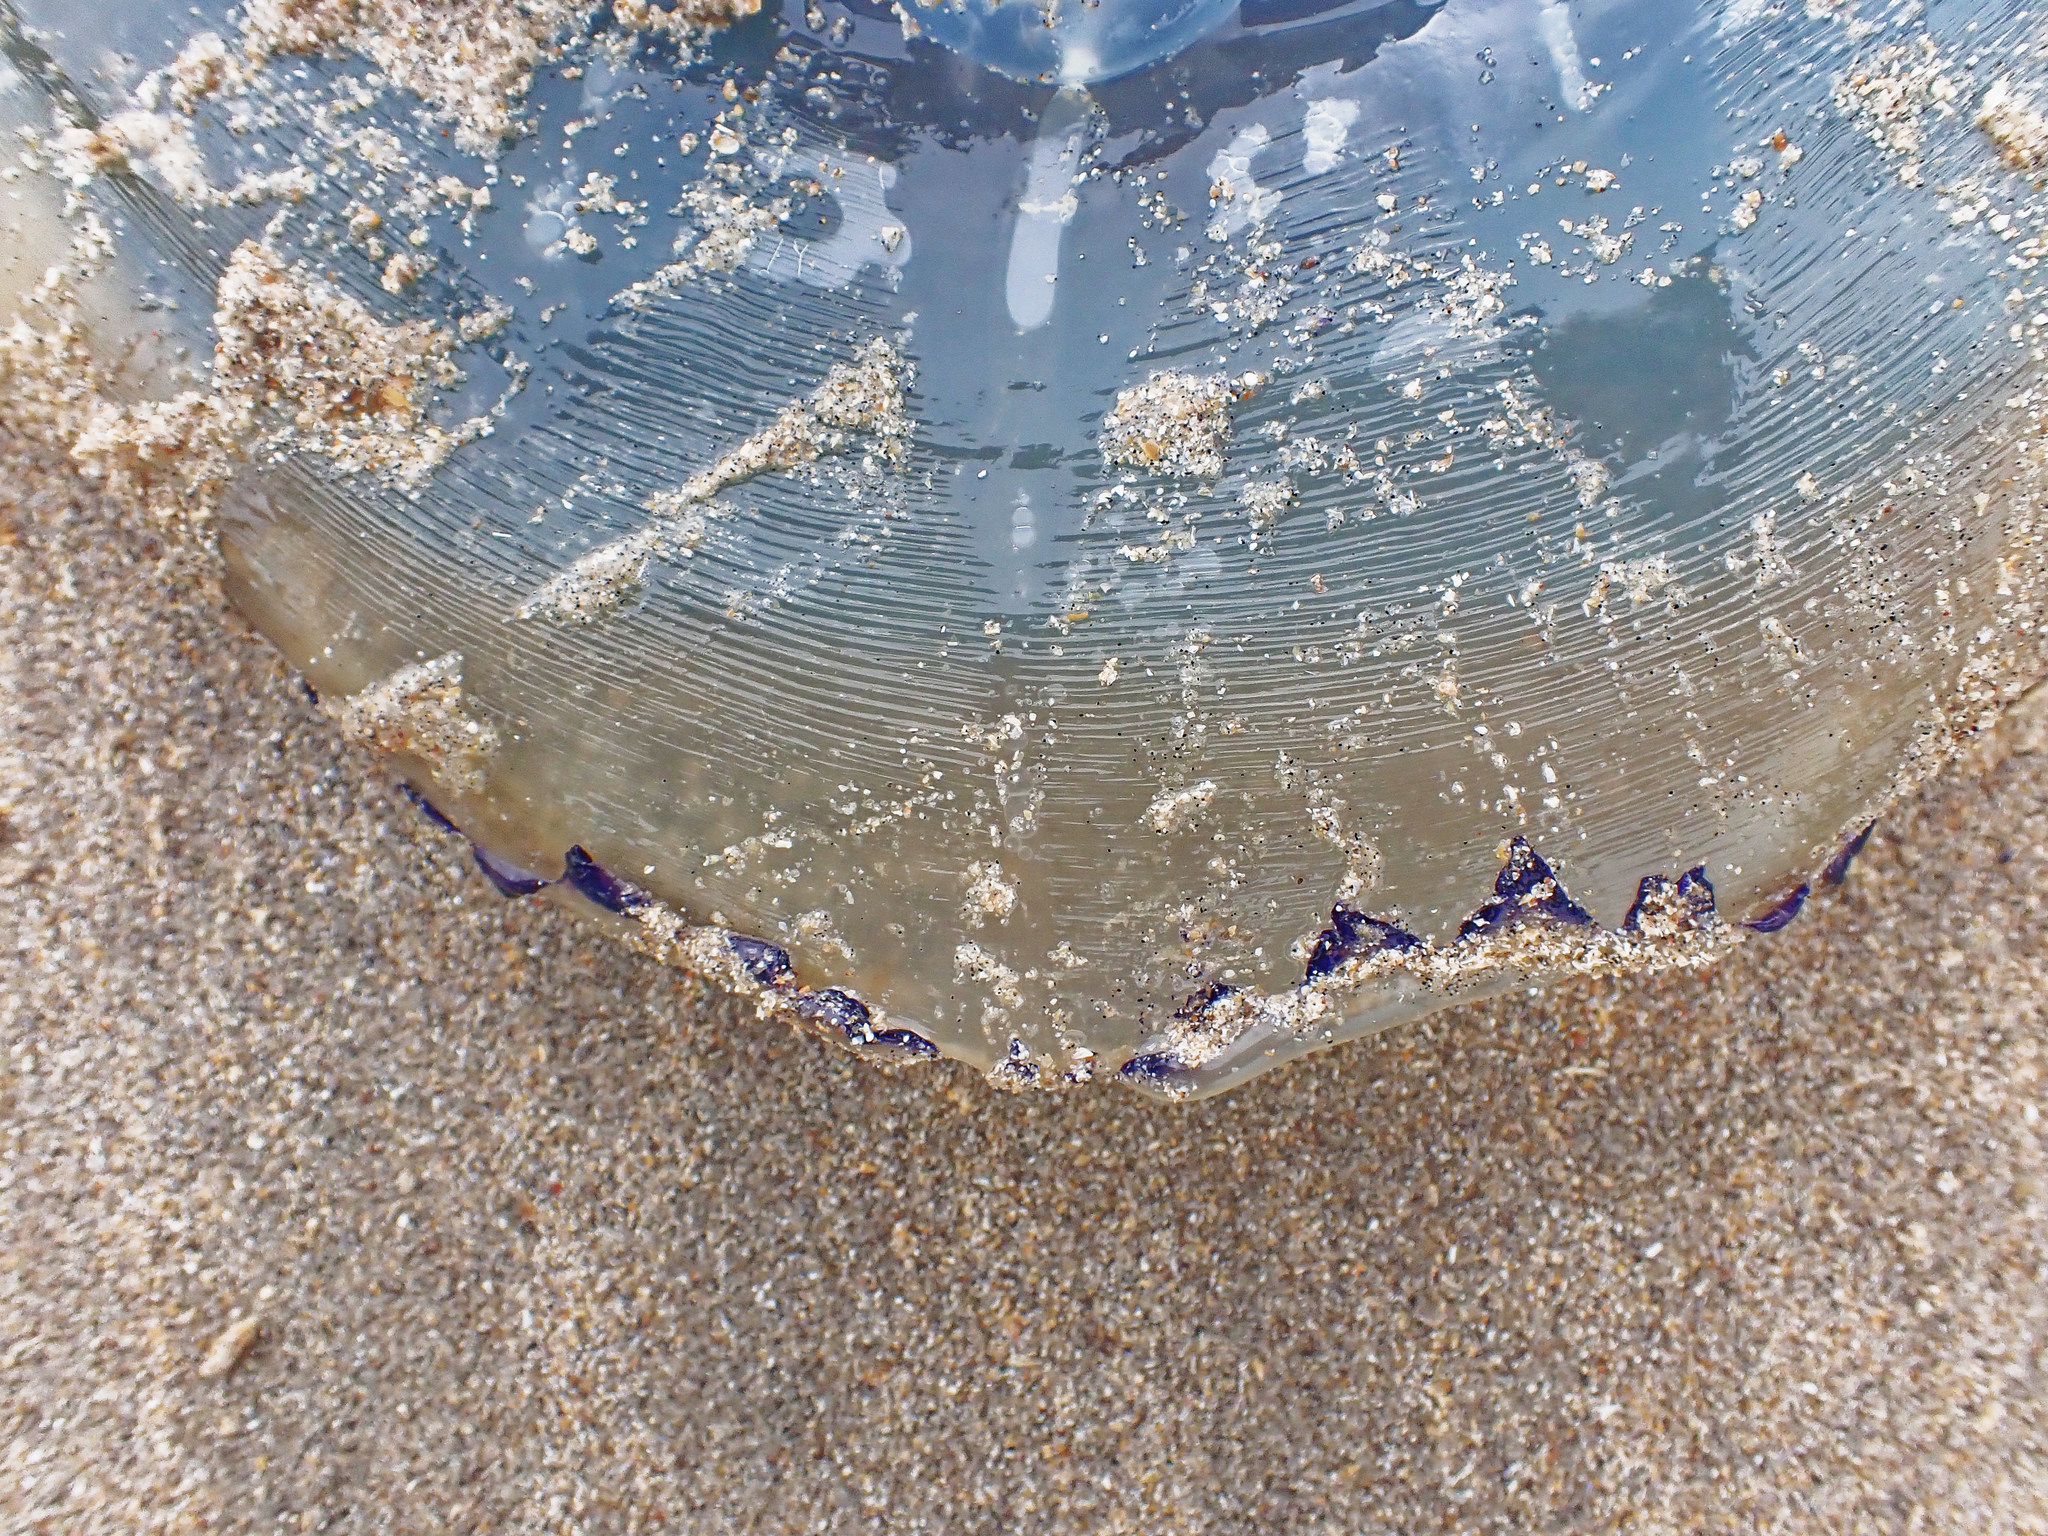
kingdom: Animalia
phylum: Cnidaria
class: Scyphozoa
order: Rhizostomeae
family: Rhizostomatidae
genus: Rhizostoma
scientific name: Rhizostoma octopus
